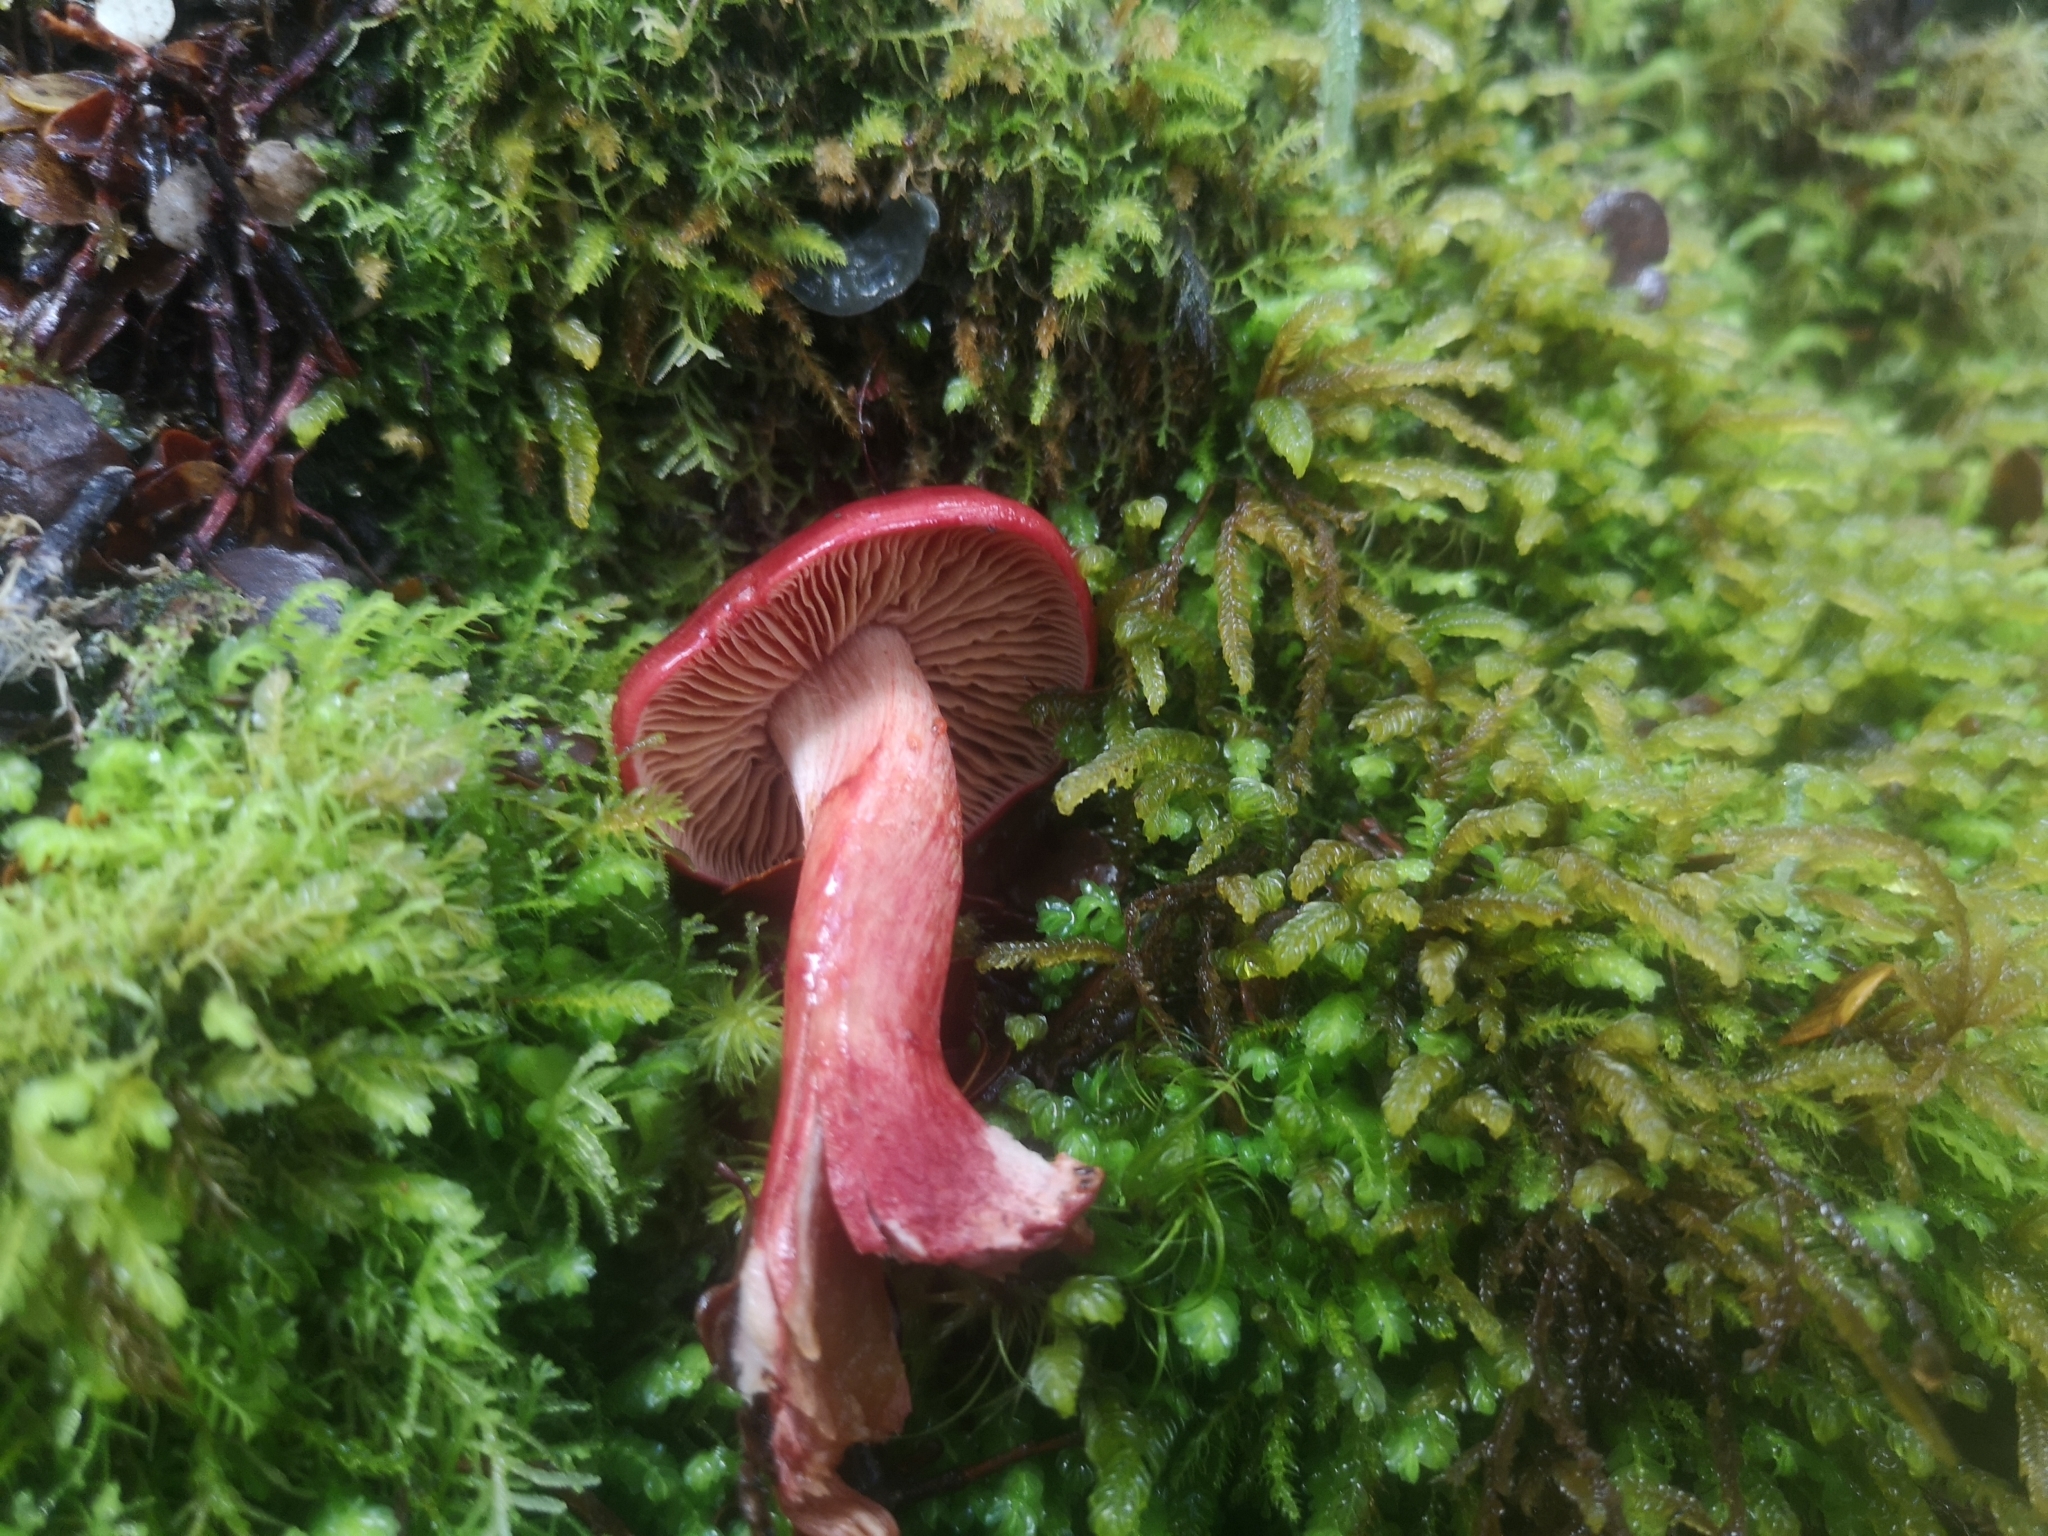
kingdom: Fungi
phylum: Basidiomycota
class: Agaricomycetes
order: Agaricales
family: Cortinariaceae
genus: Cortinarius
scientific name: Cortinarius cardinalis
